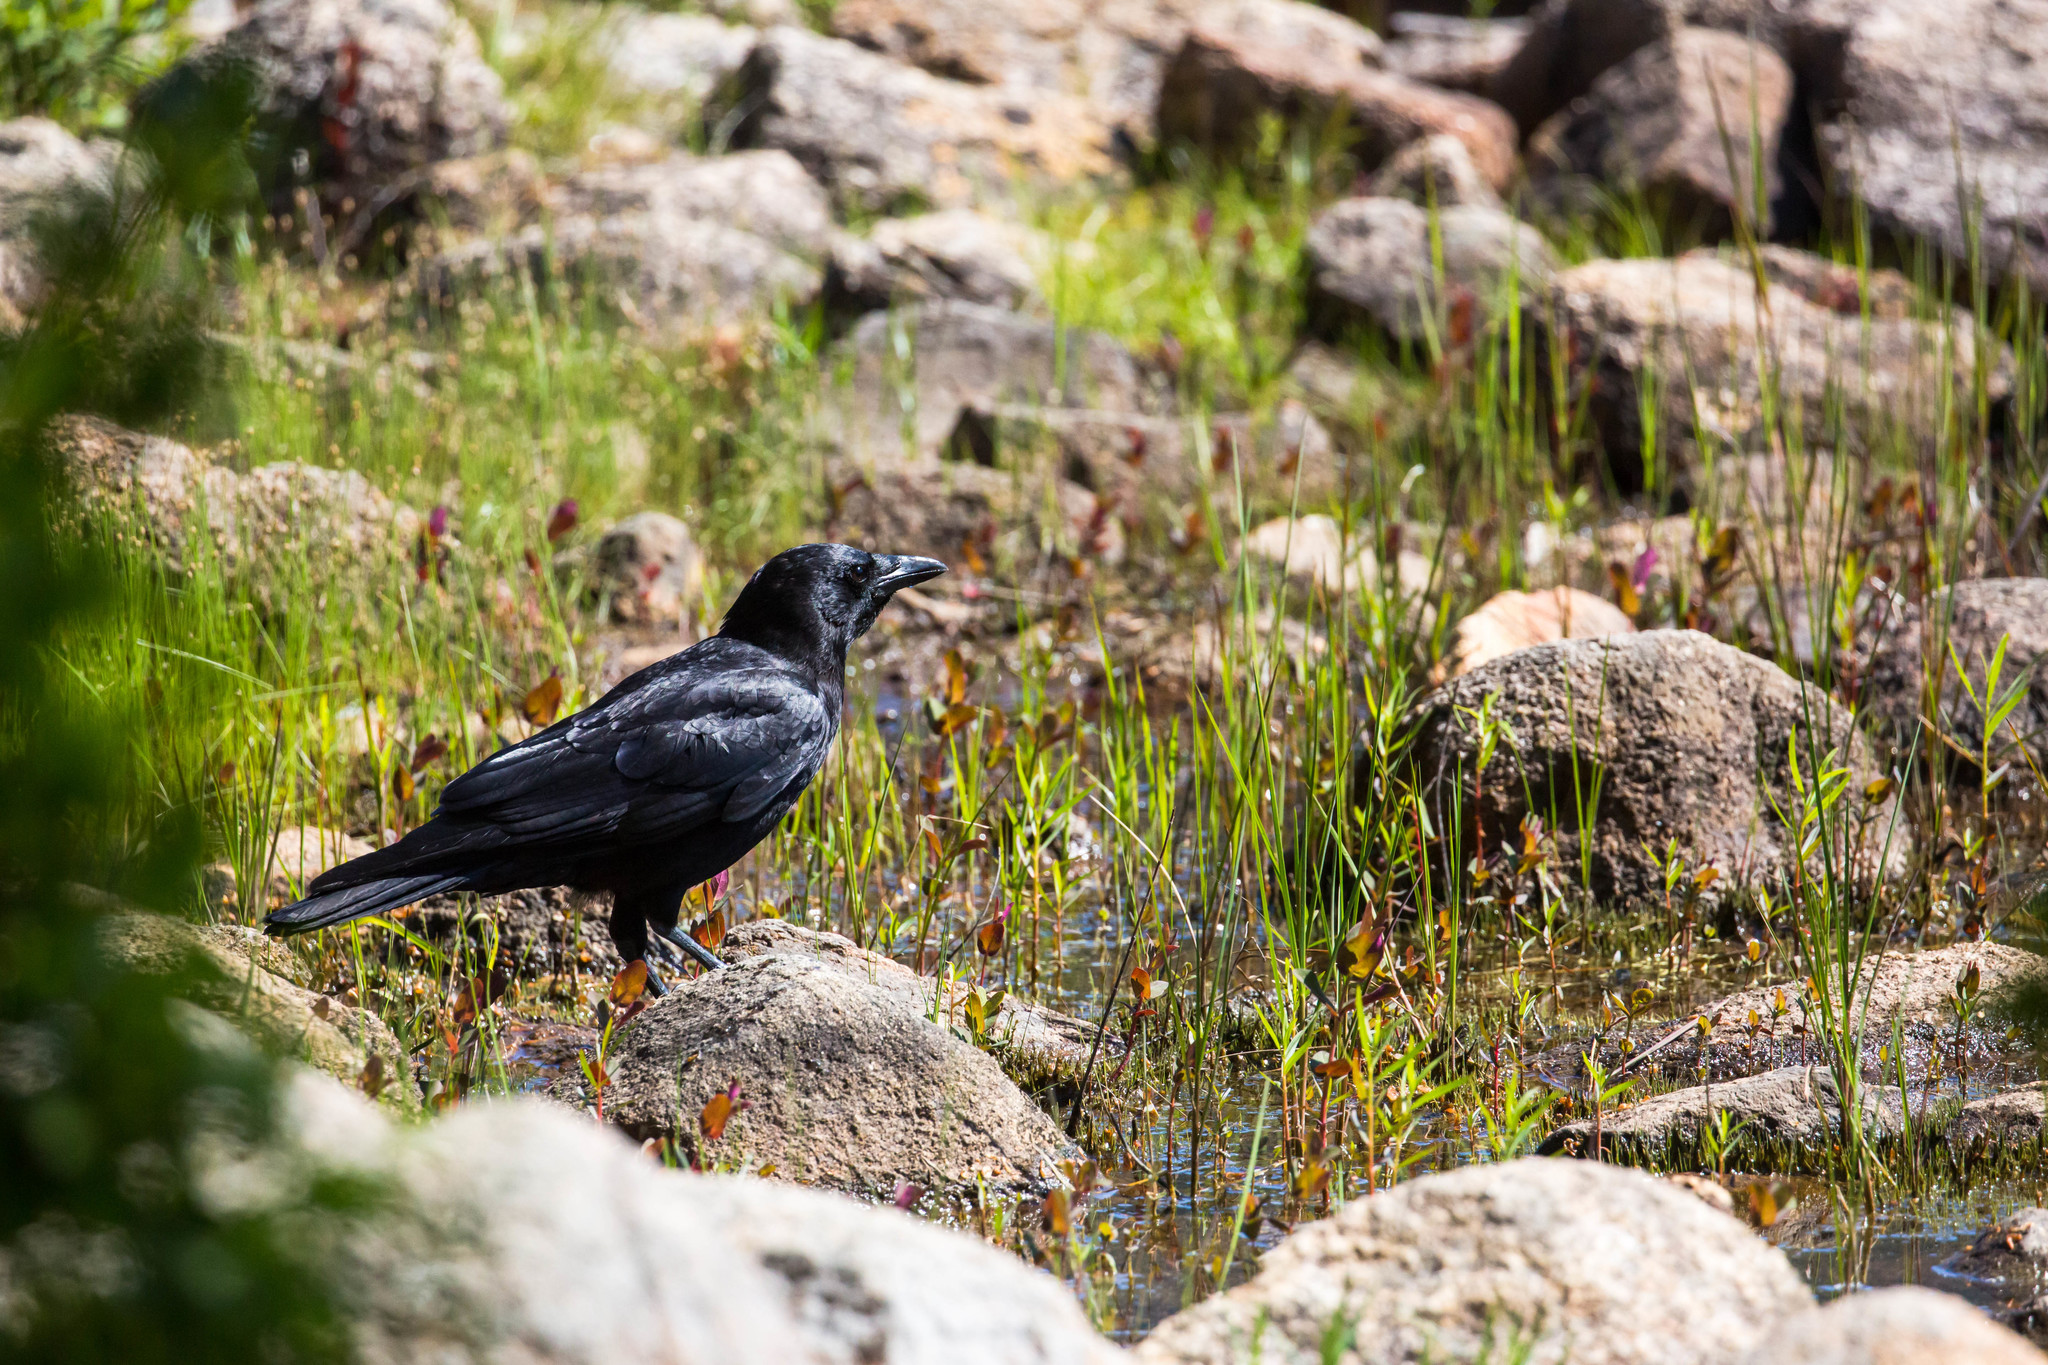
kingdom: Animalia
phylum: Chordata
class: Aves
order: Passeriformes
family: Corvidae
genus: Corvus
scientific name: Corvus brachyrhynchos
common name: American crow
